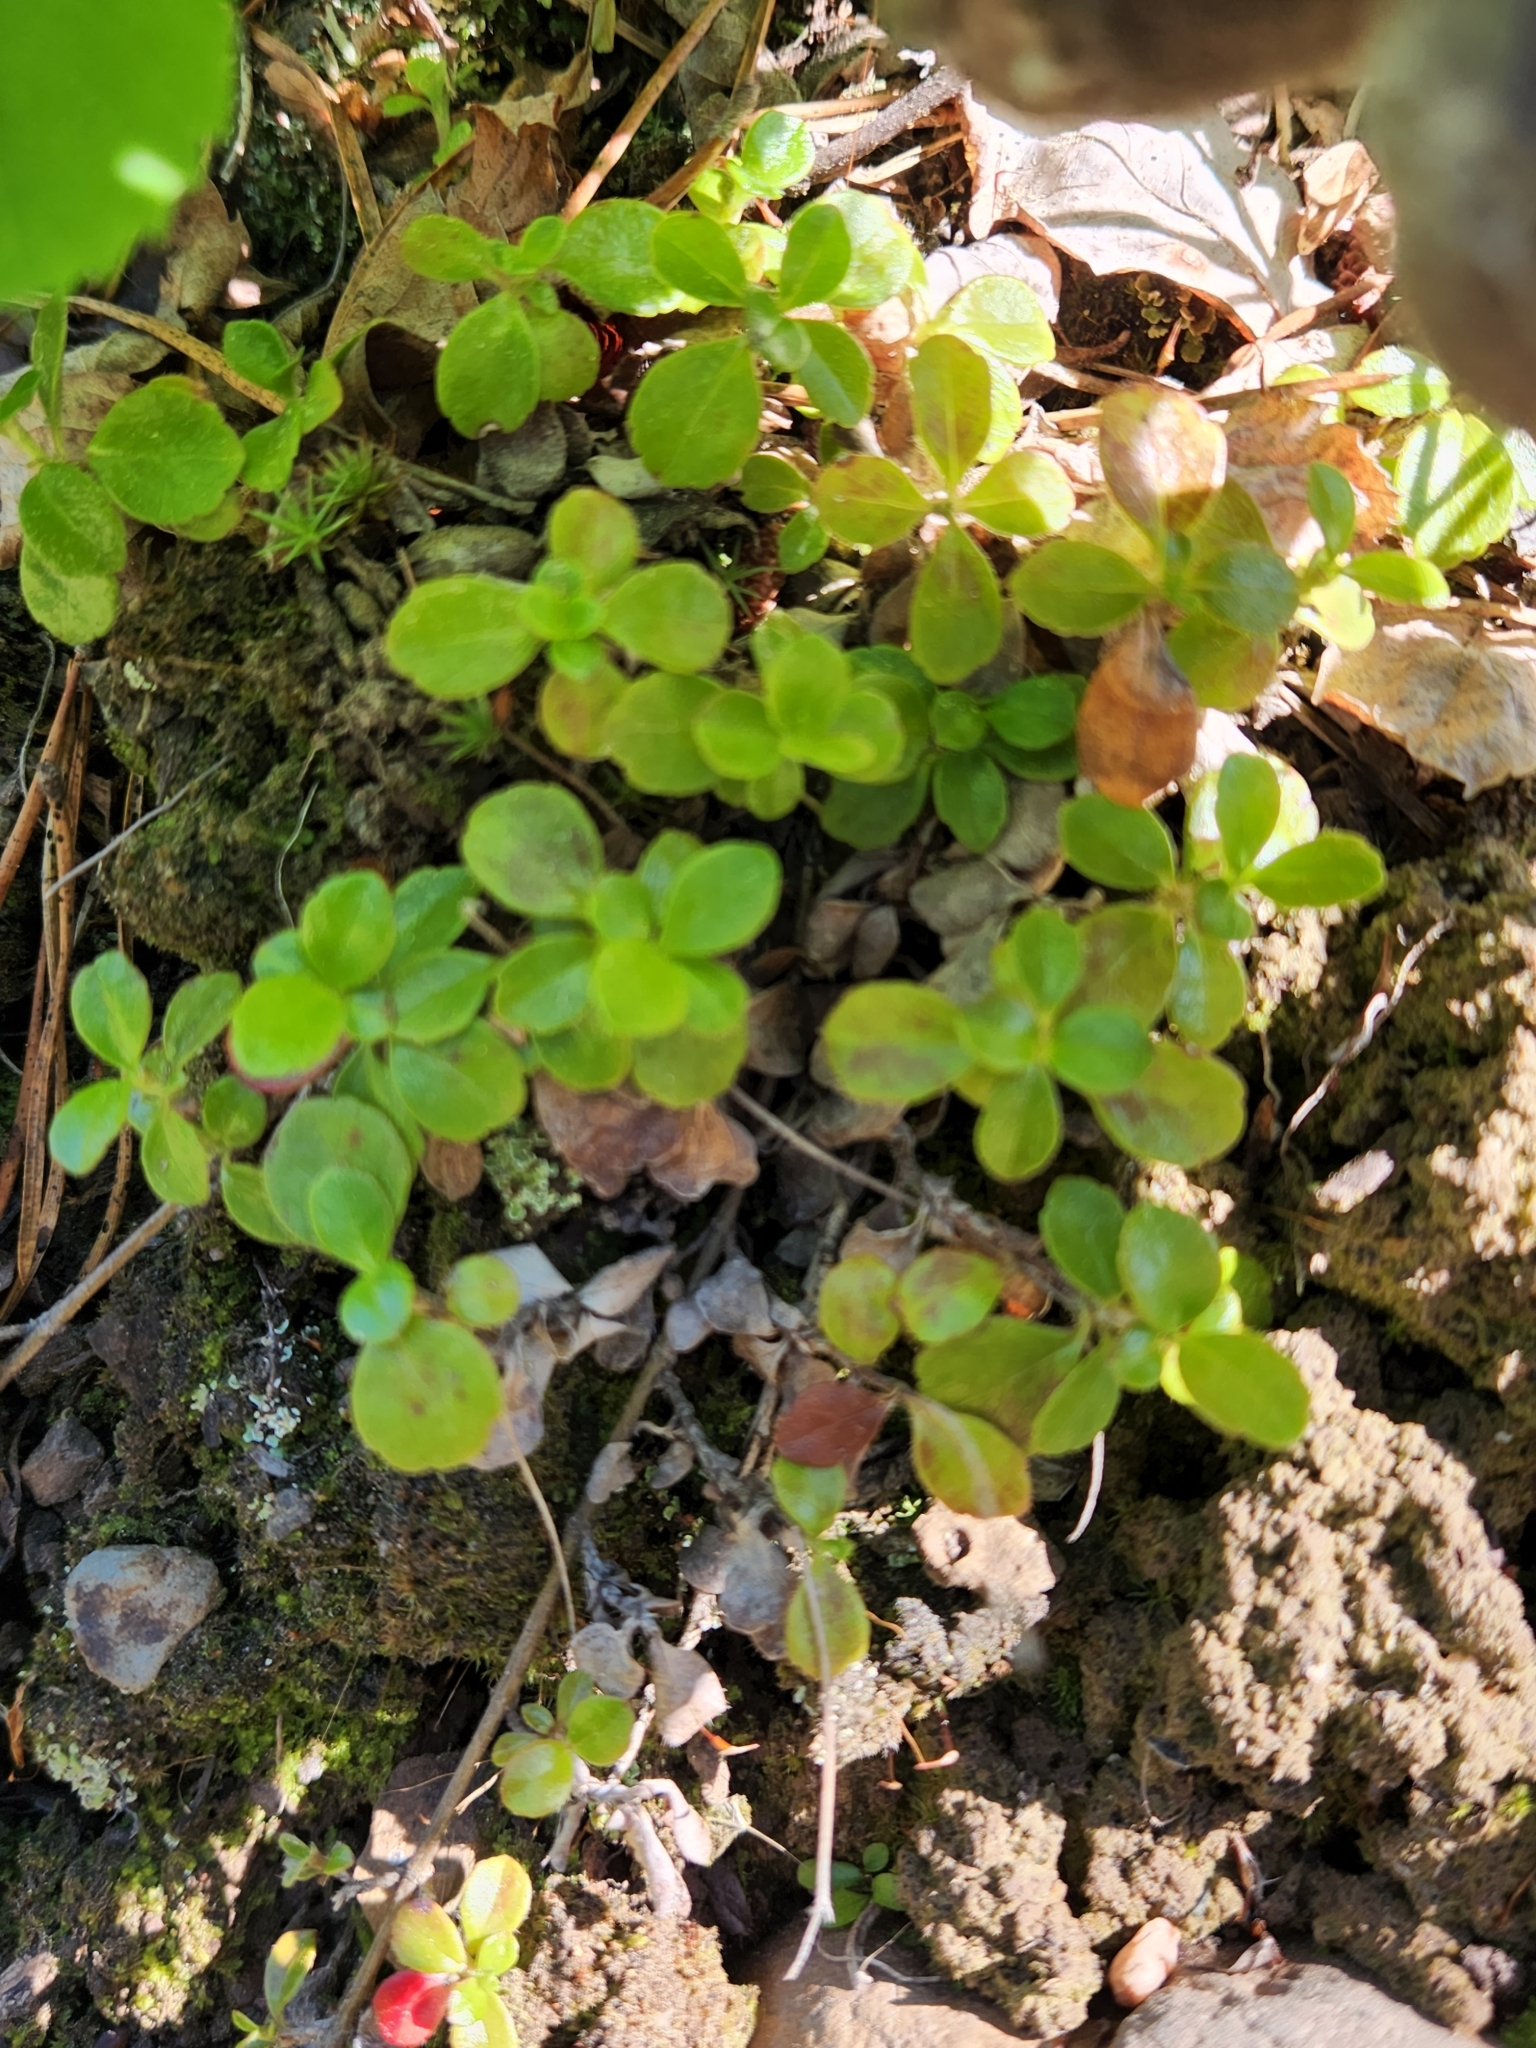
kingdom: Plantae
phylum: Tracheophyta
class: Magnoliopsida
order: Dipsacales
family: Caprifoliaceae
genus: Linnaea
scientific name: Linnaea borealis
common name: Twinflower
